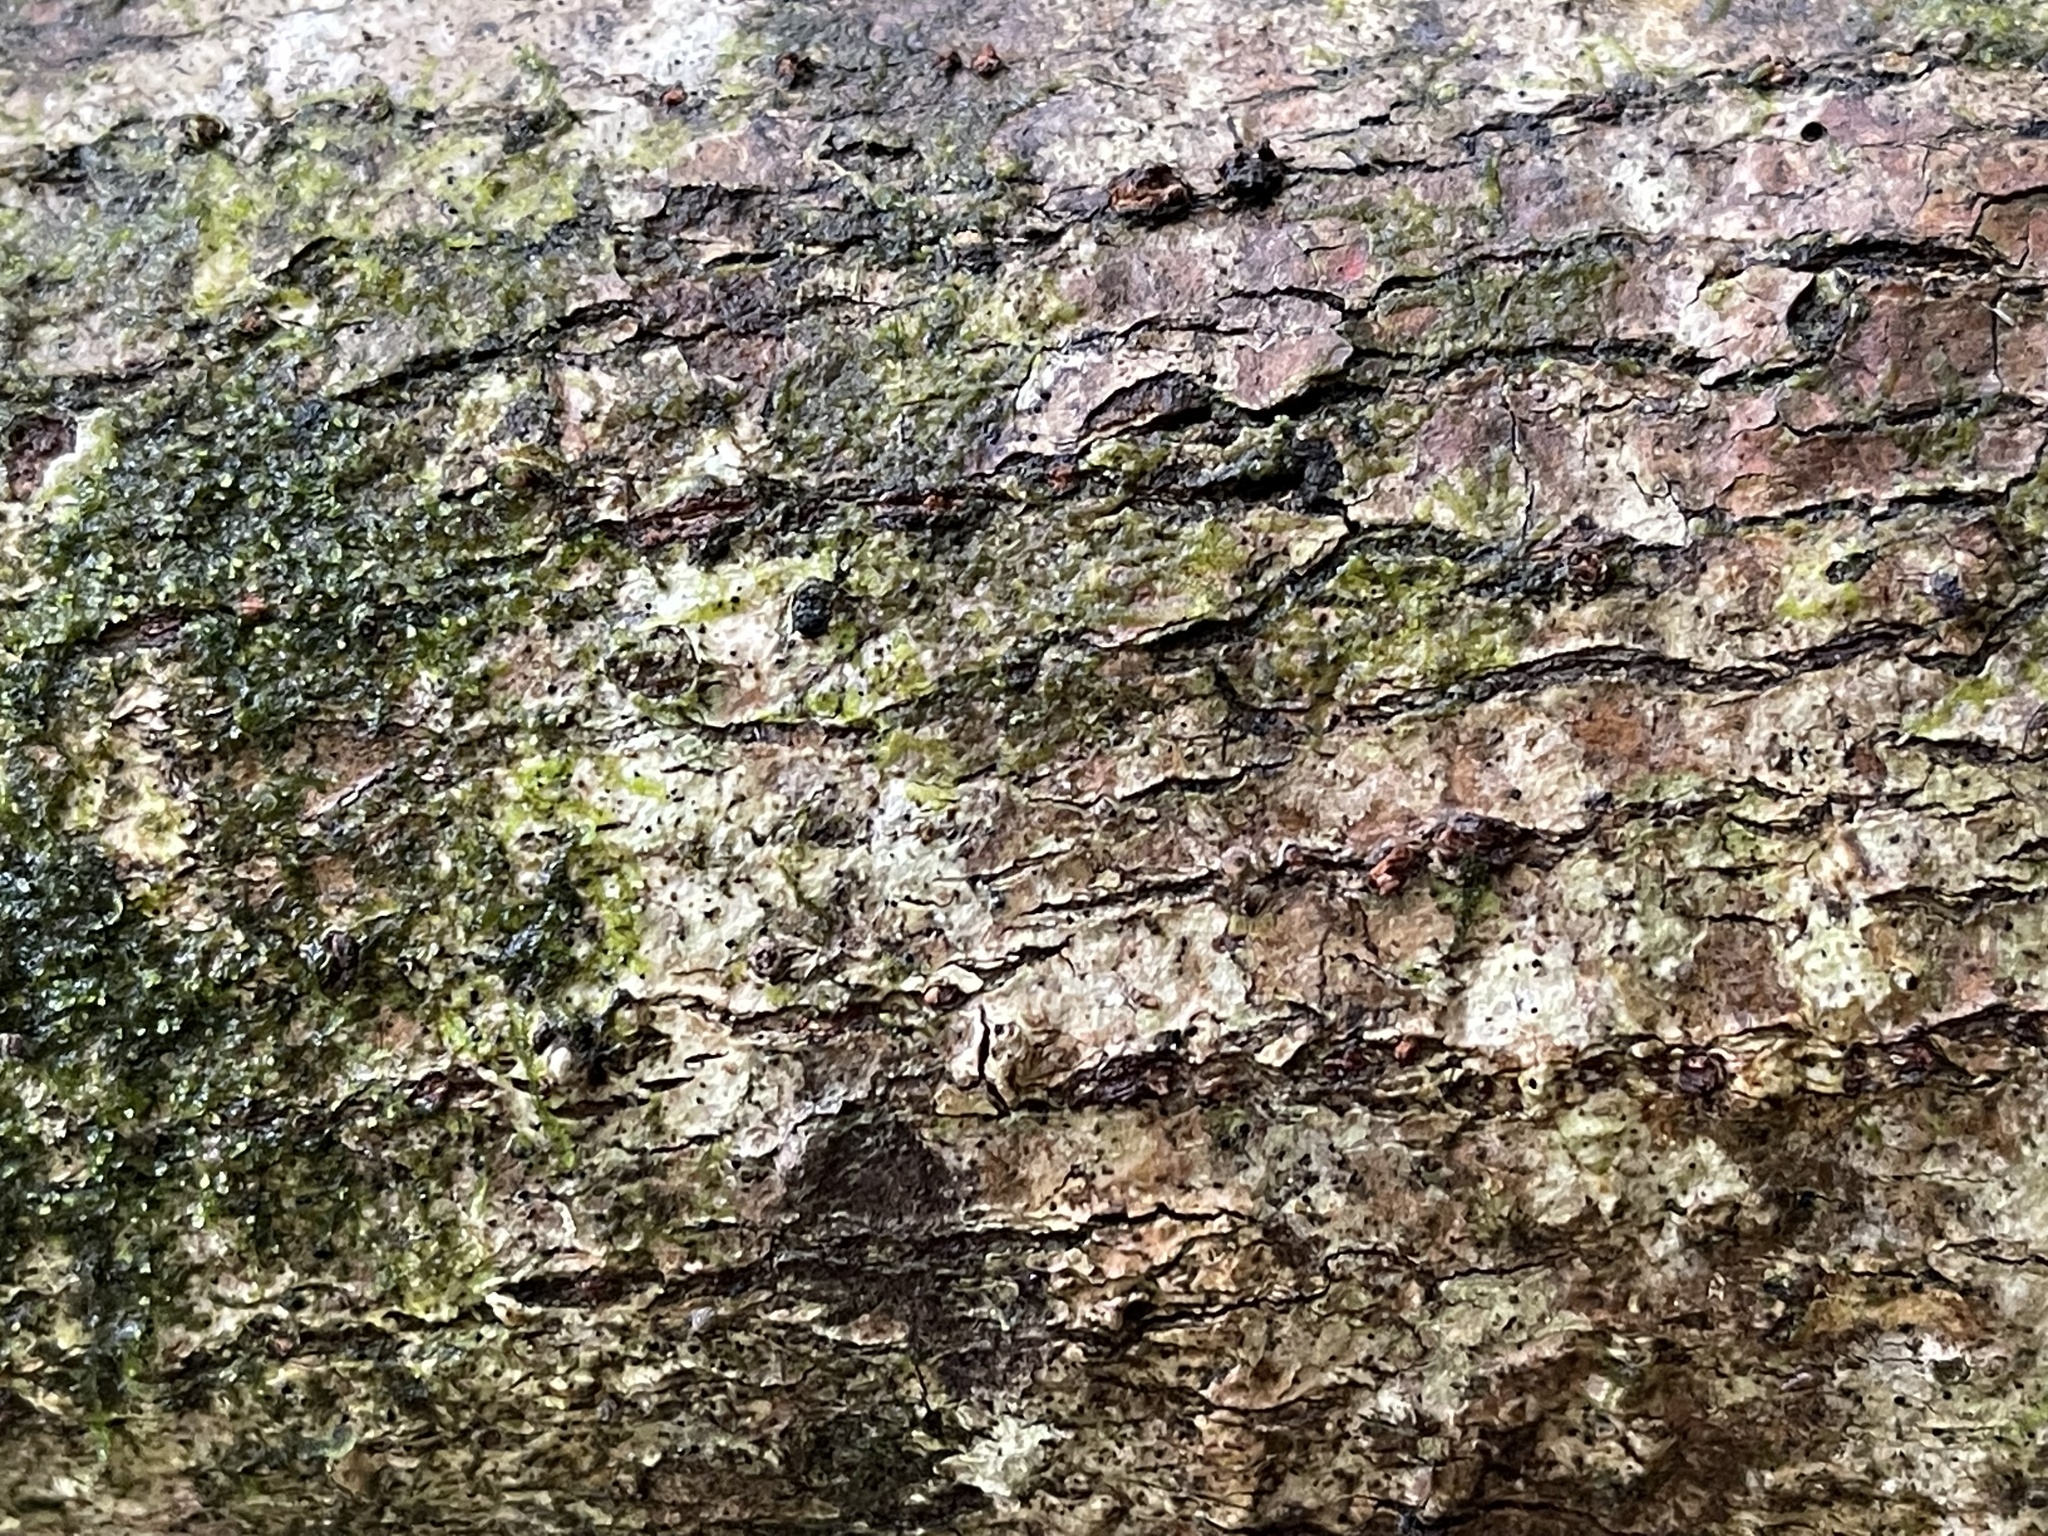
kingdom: Plantae
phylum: Tracheophyta
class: Magnoliopsida
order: Malvales
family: Malvaceae
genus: Talipariti
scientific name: Talipariti tiliaceum
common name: Sea hibiscus
